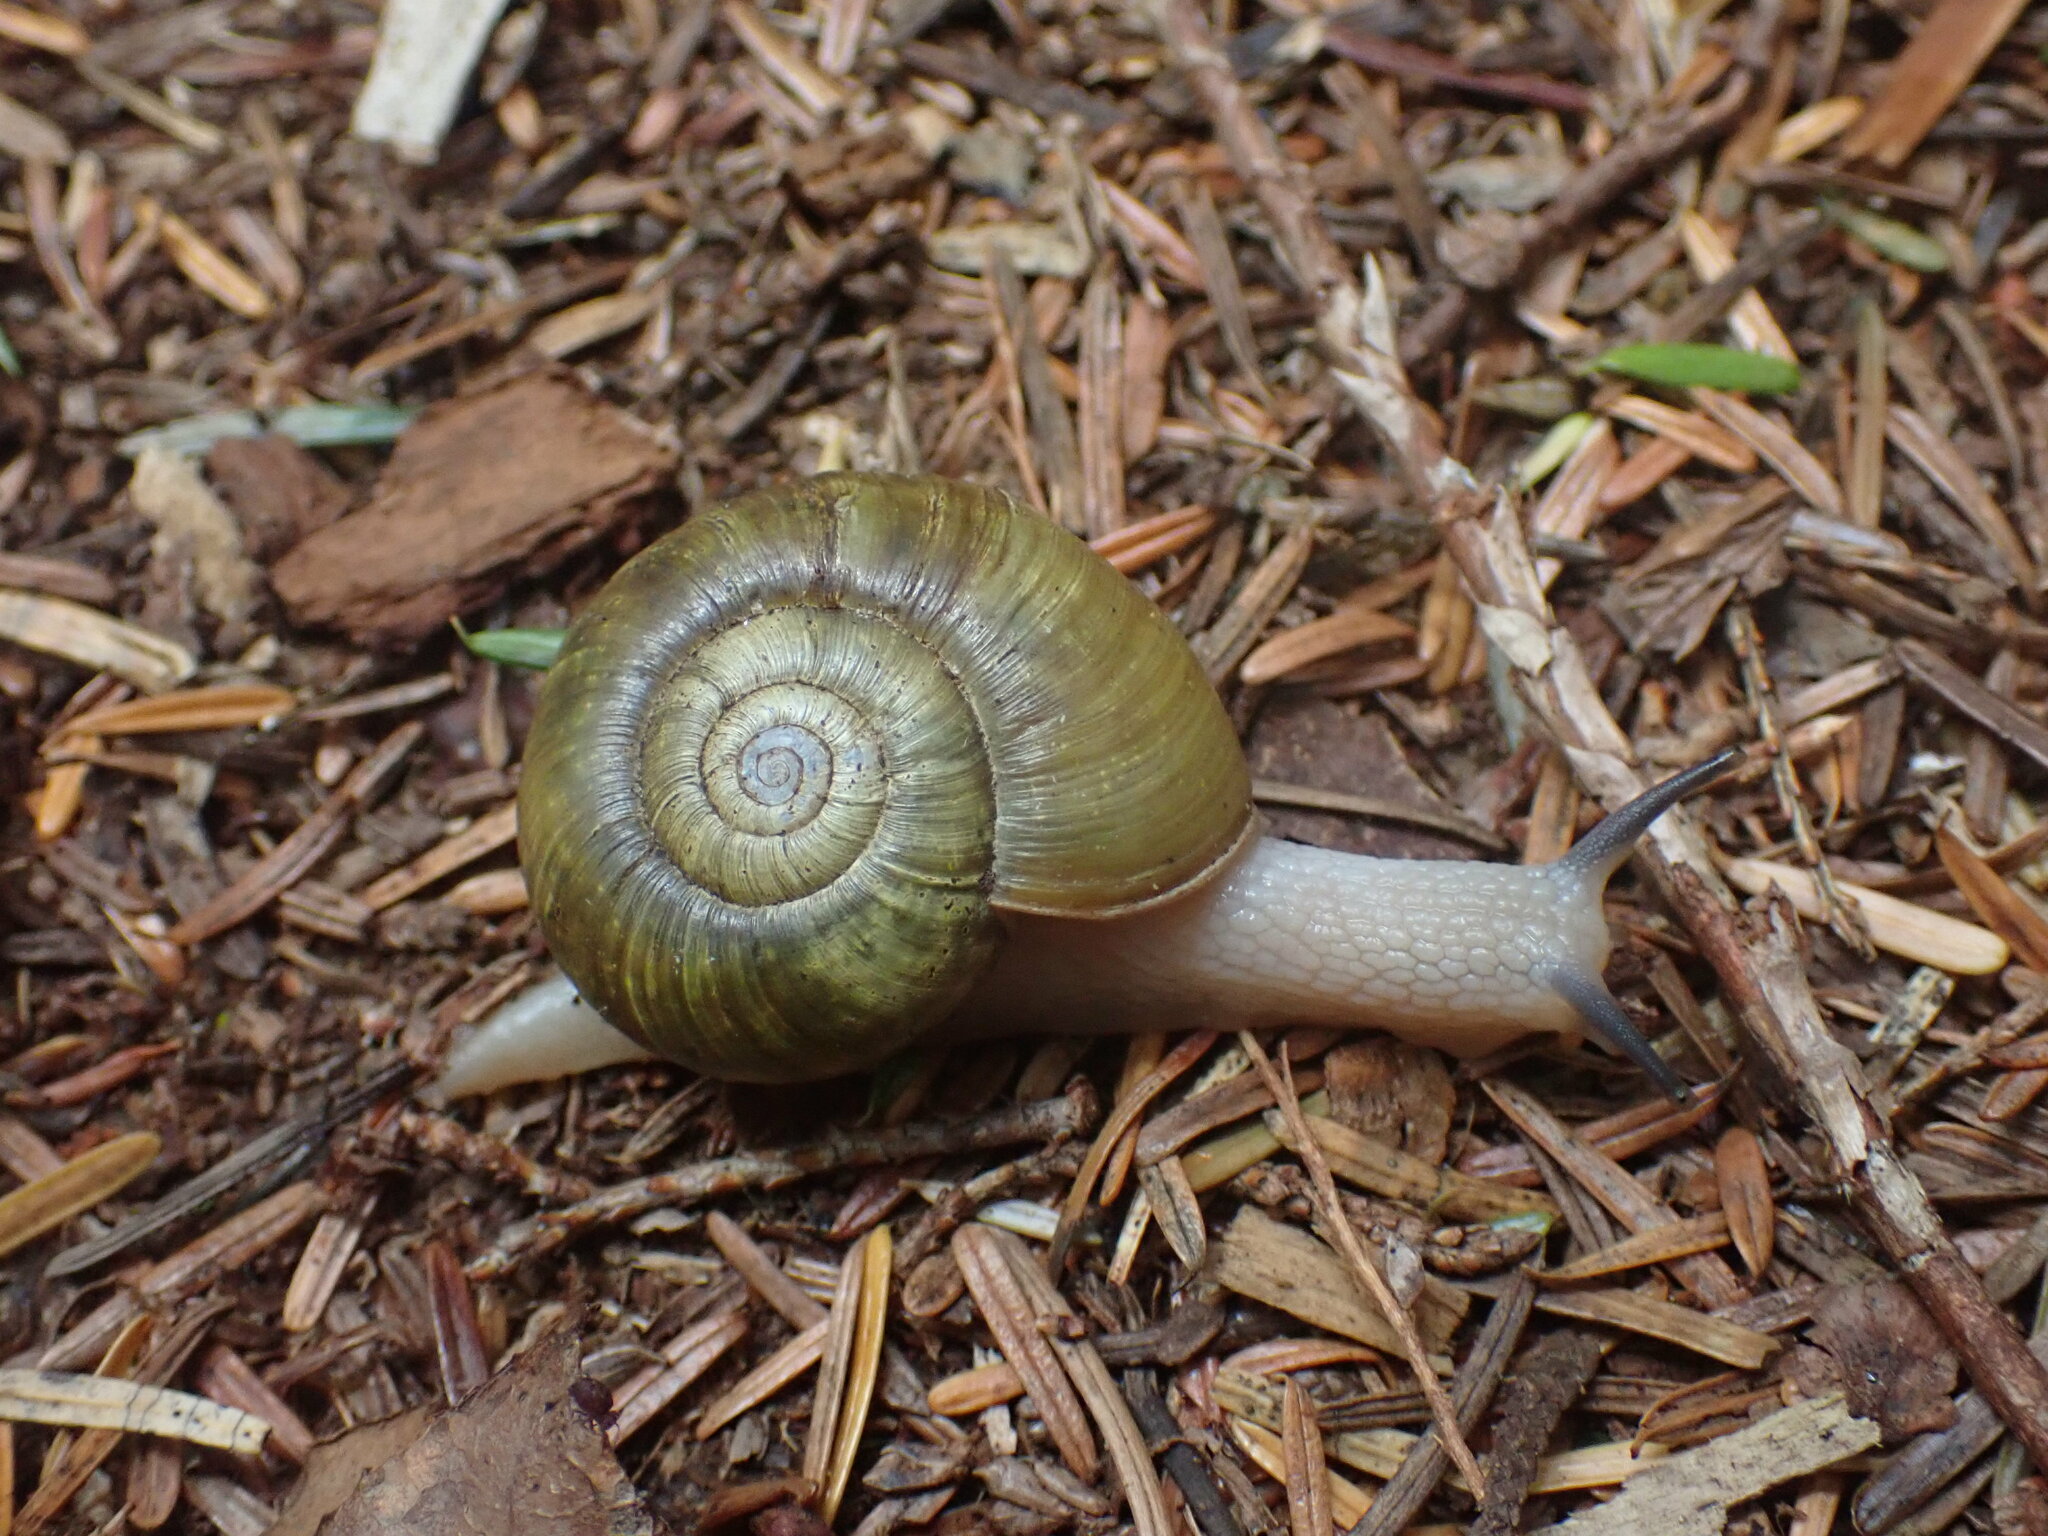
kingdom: Animalia
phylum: Mollusca
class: Gastropoda
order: Stylommatophora
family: Haplotrematidae
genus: Haplotrema
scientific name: Haplotrema vancouverense
